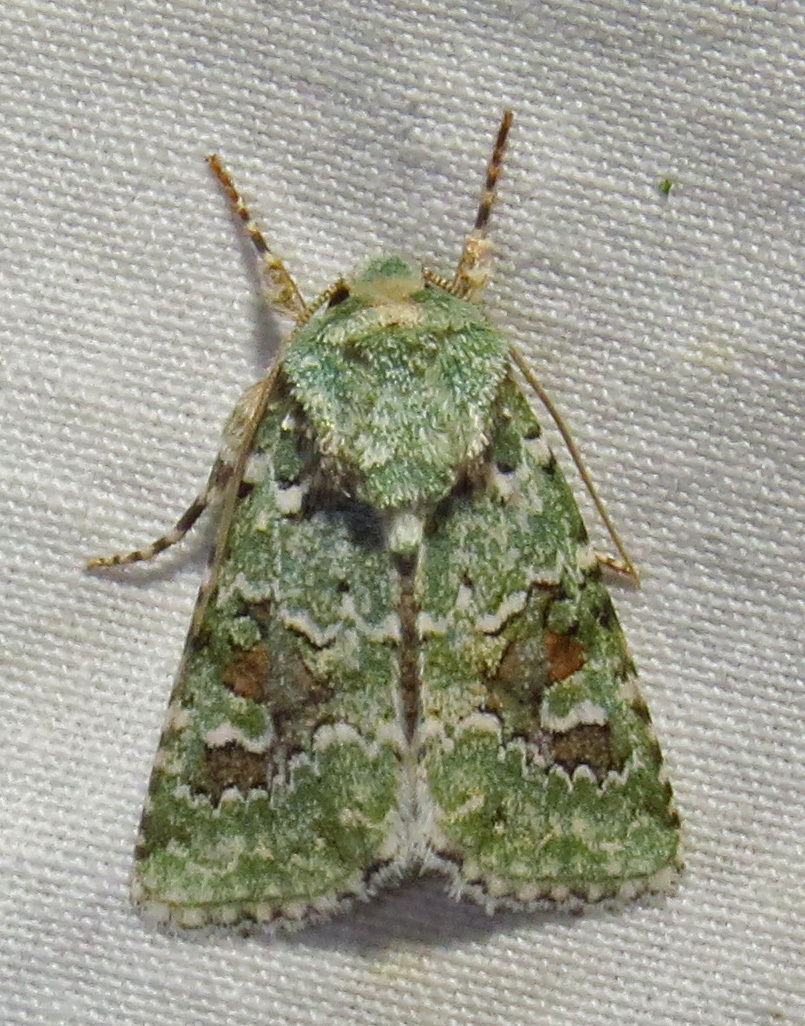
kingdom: Animalia
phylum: Arthropoda
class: Insecta
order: Lepidoptera
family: Noctuidae
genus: Lacinipolia
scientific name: Lacinipolia laudabilis
